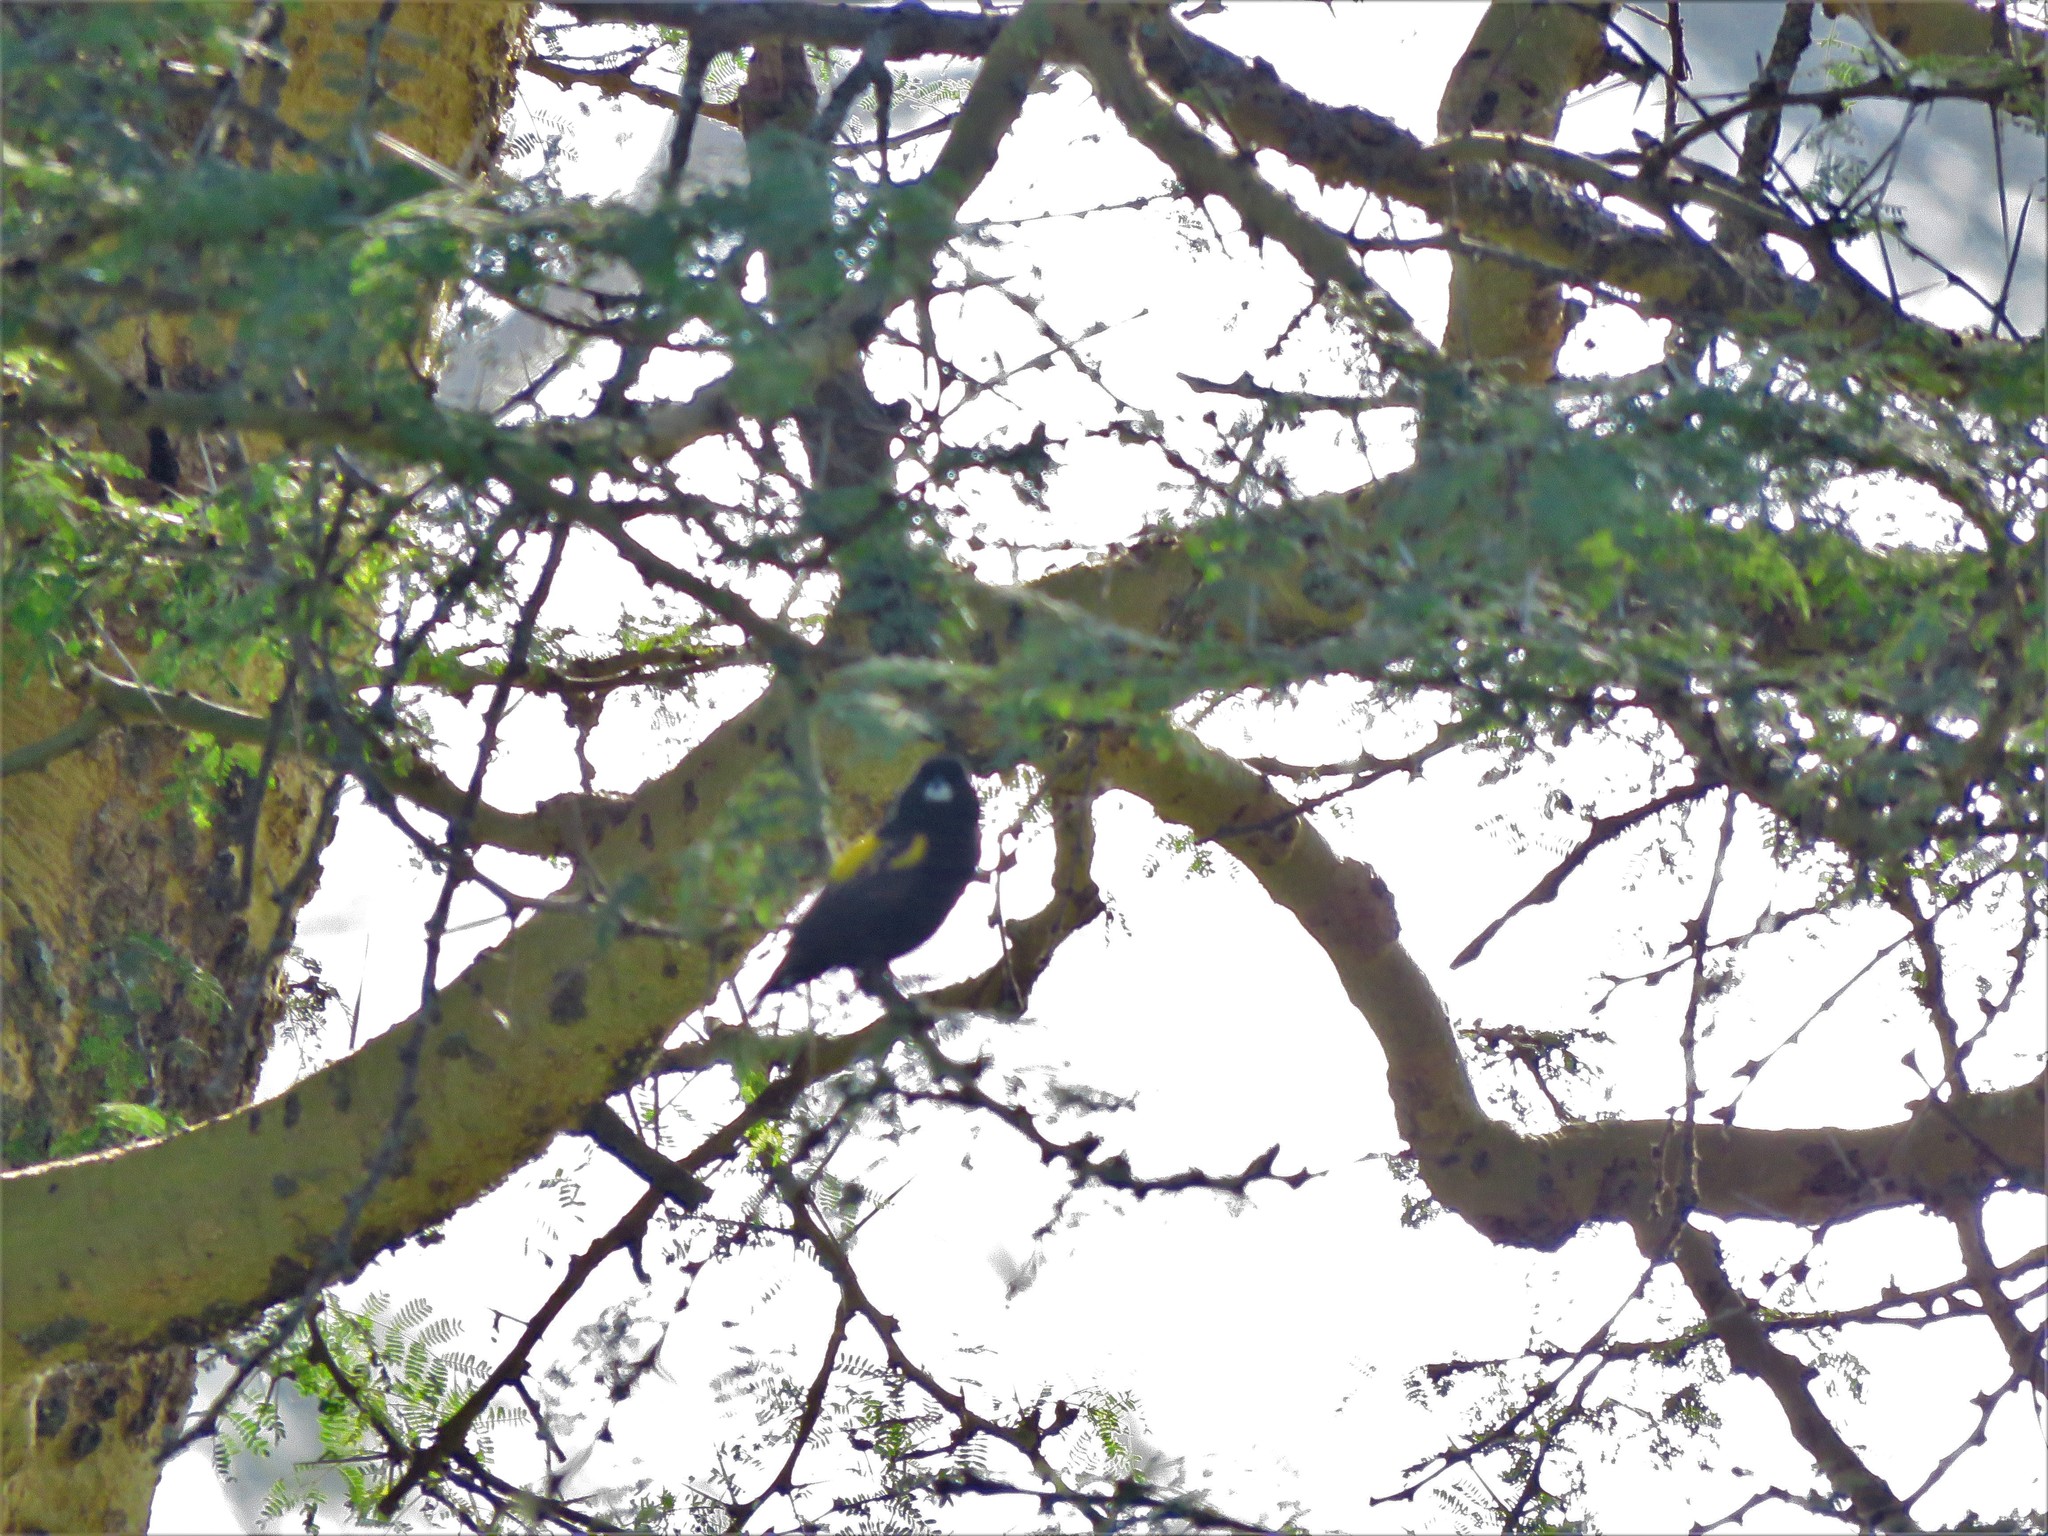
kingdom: Animalia
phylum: Chordata
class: Aves
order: Passeriformes
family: Ploceidae
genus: Euplectes
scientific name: Euplectes capensis
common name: Yellow bishop
